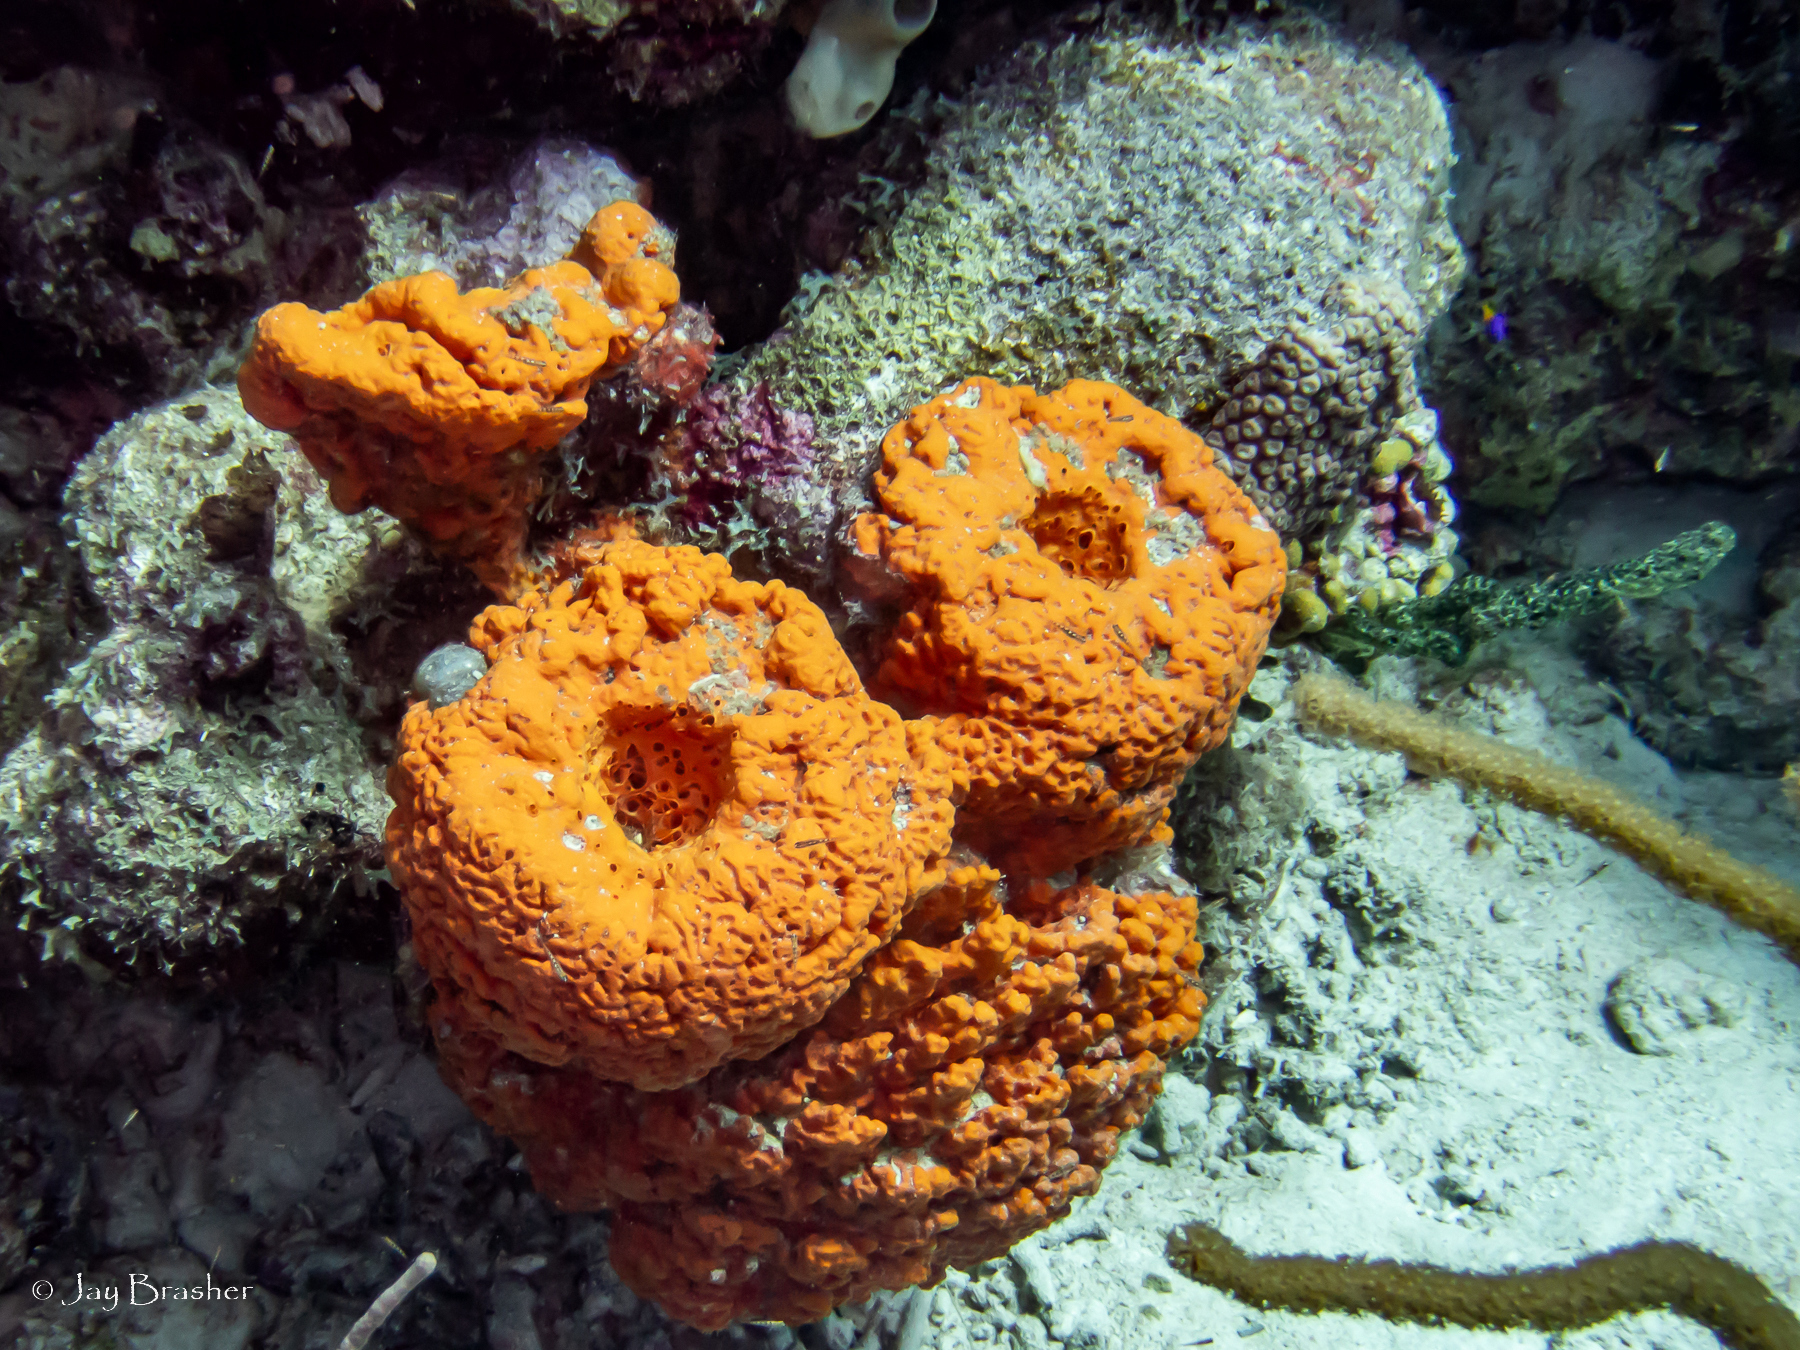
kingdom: Animalia
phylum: Porifera
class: Demospongiae
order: Agelasida
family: Agelasidae
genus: Agelas
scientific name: Agelas clathrodes
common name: Orange elephant ear sponge
